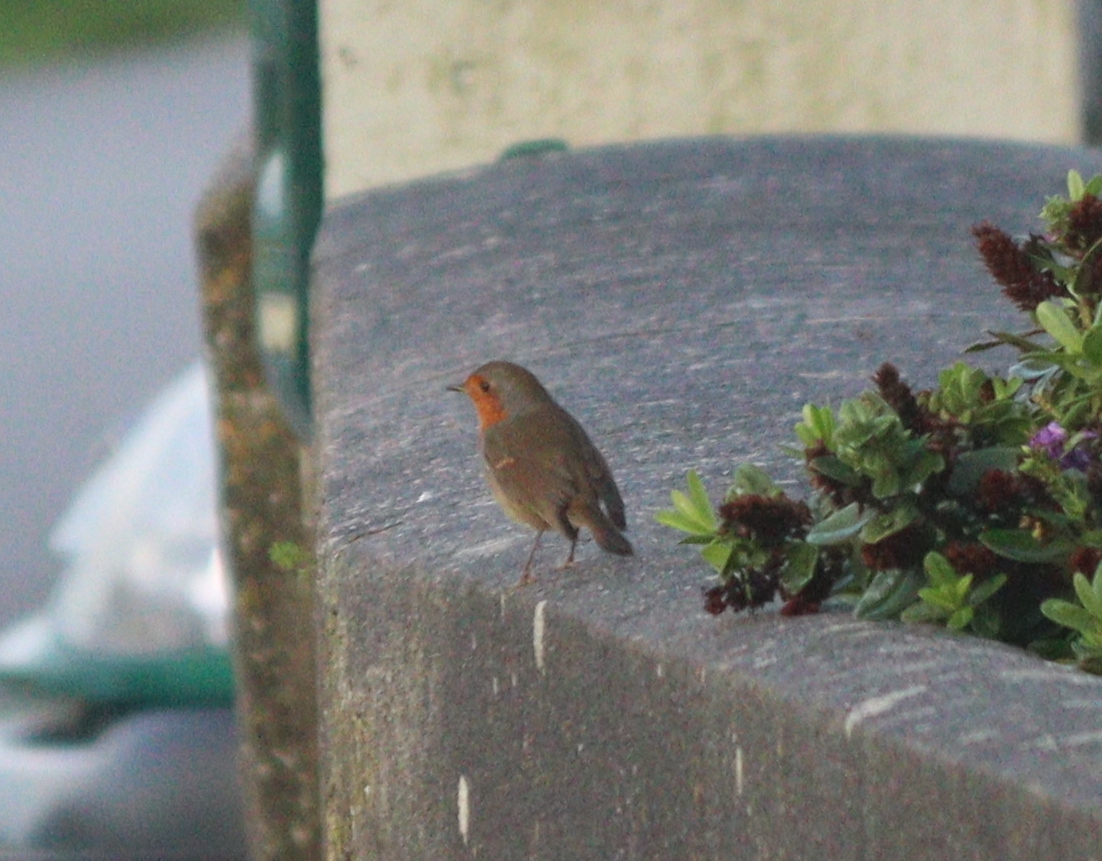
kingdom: Animalia
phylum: Chordata
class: Aves
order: Passeriformes
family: Muscicapidae
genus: Erithacus
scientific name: Erithacus rubecula
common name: European robin
